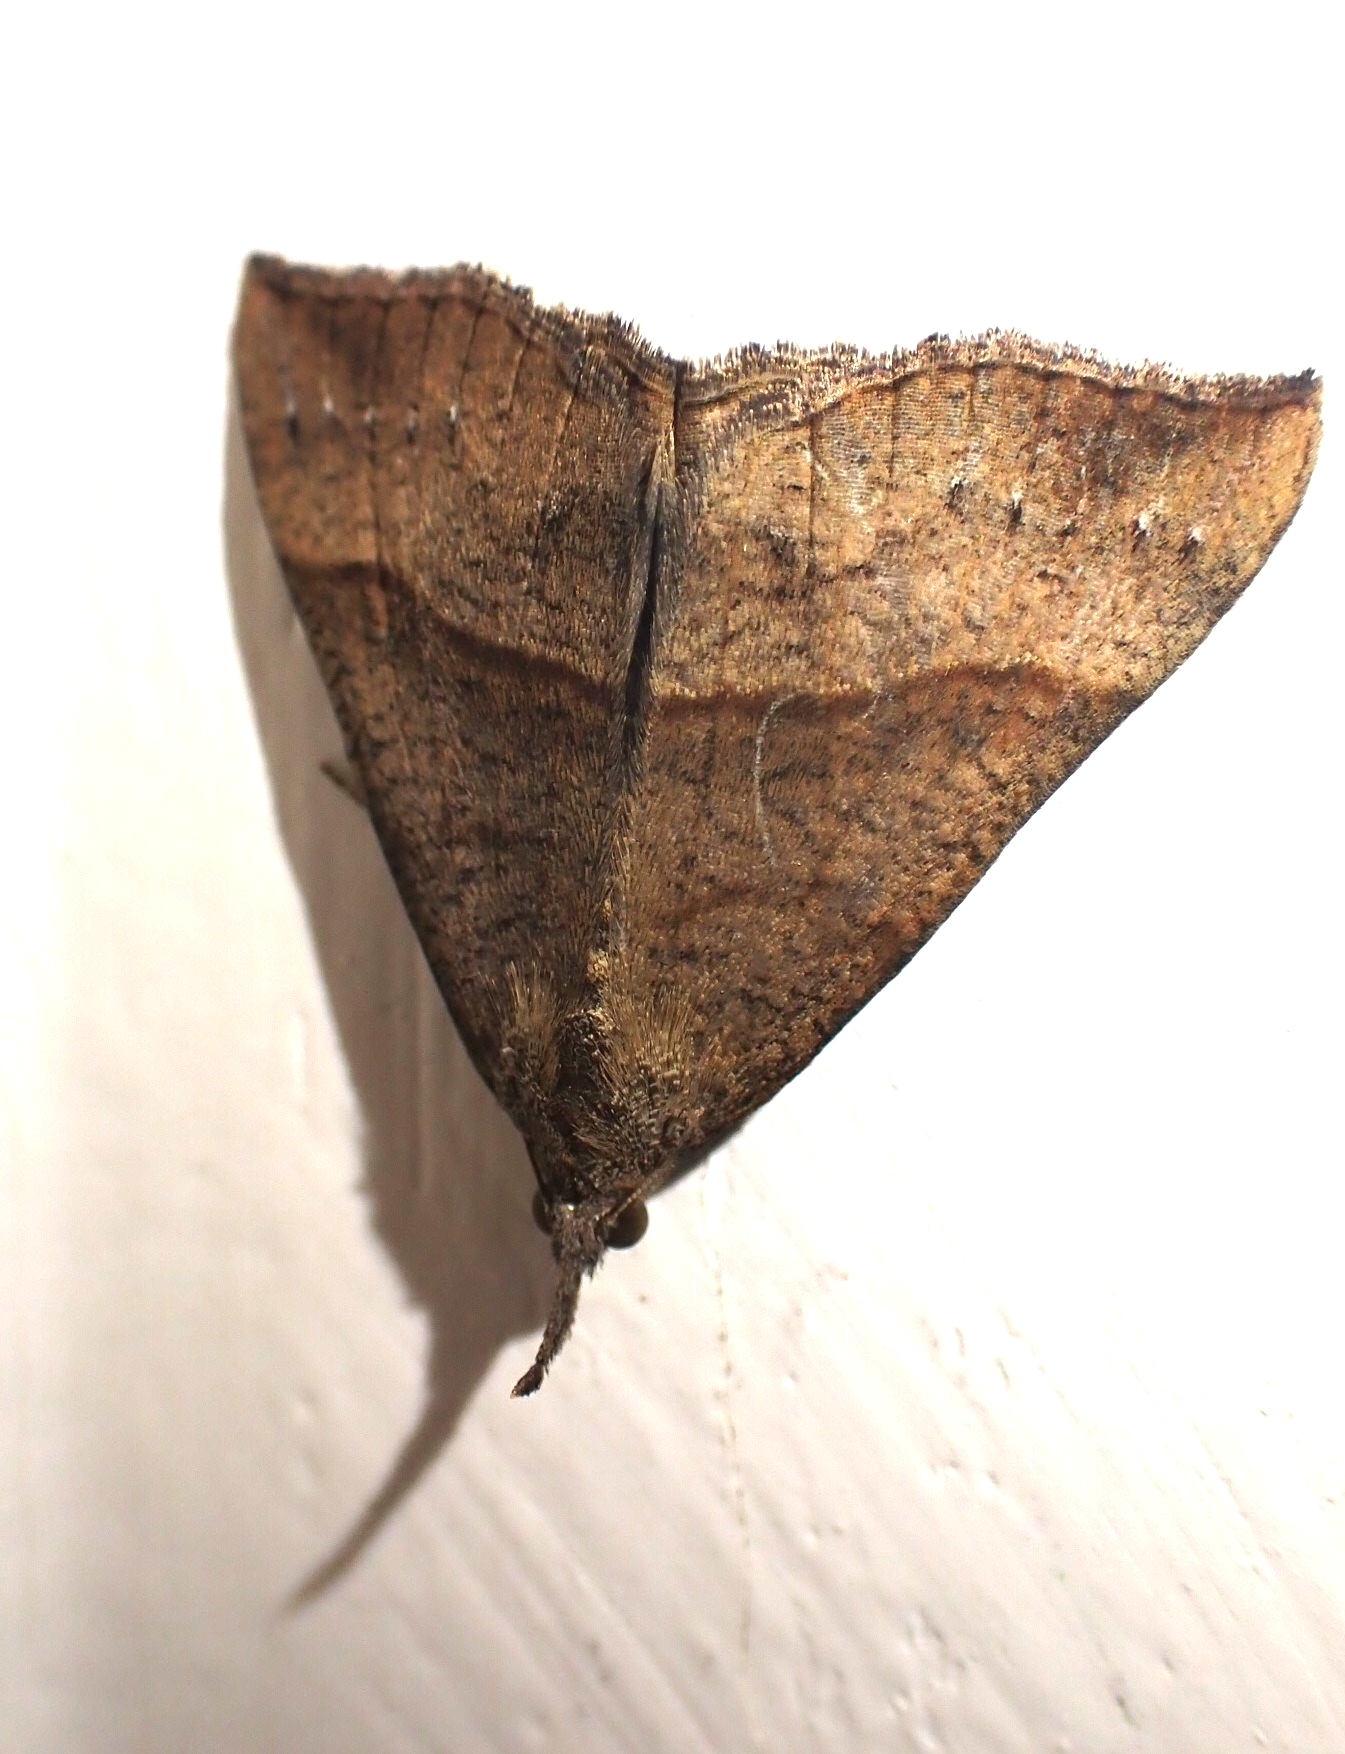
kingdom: Animalia
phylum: Arthropoda
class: Insecta
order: Lepidoptera
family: Erebidae
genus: Hypena
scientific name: Hypena proboscidalis
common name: Snout
